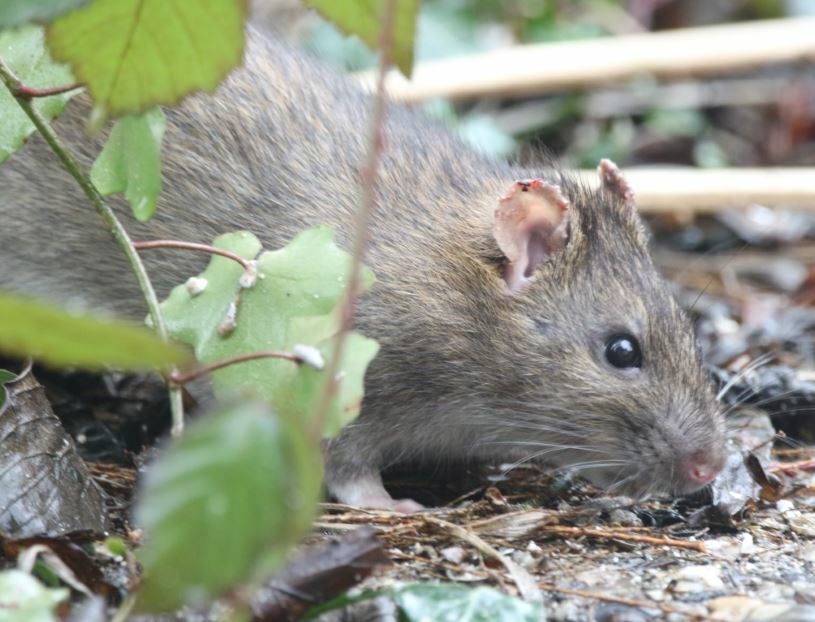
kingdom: Animalia
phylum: Chordata
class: Mammalia
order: Rodentia
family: Muridae
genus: Rattus
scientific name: Rattus norvegicus
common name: Brown rat
